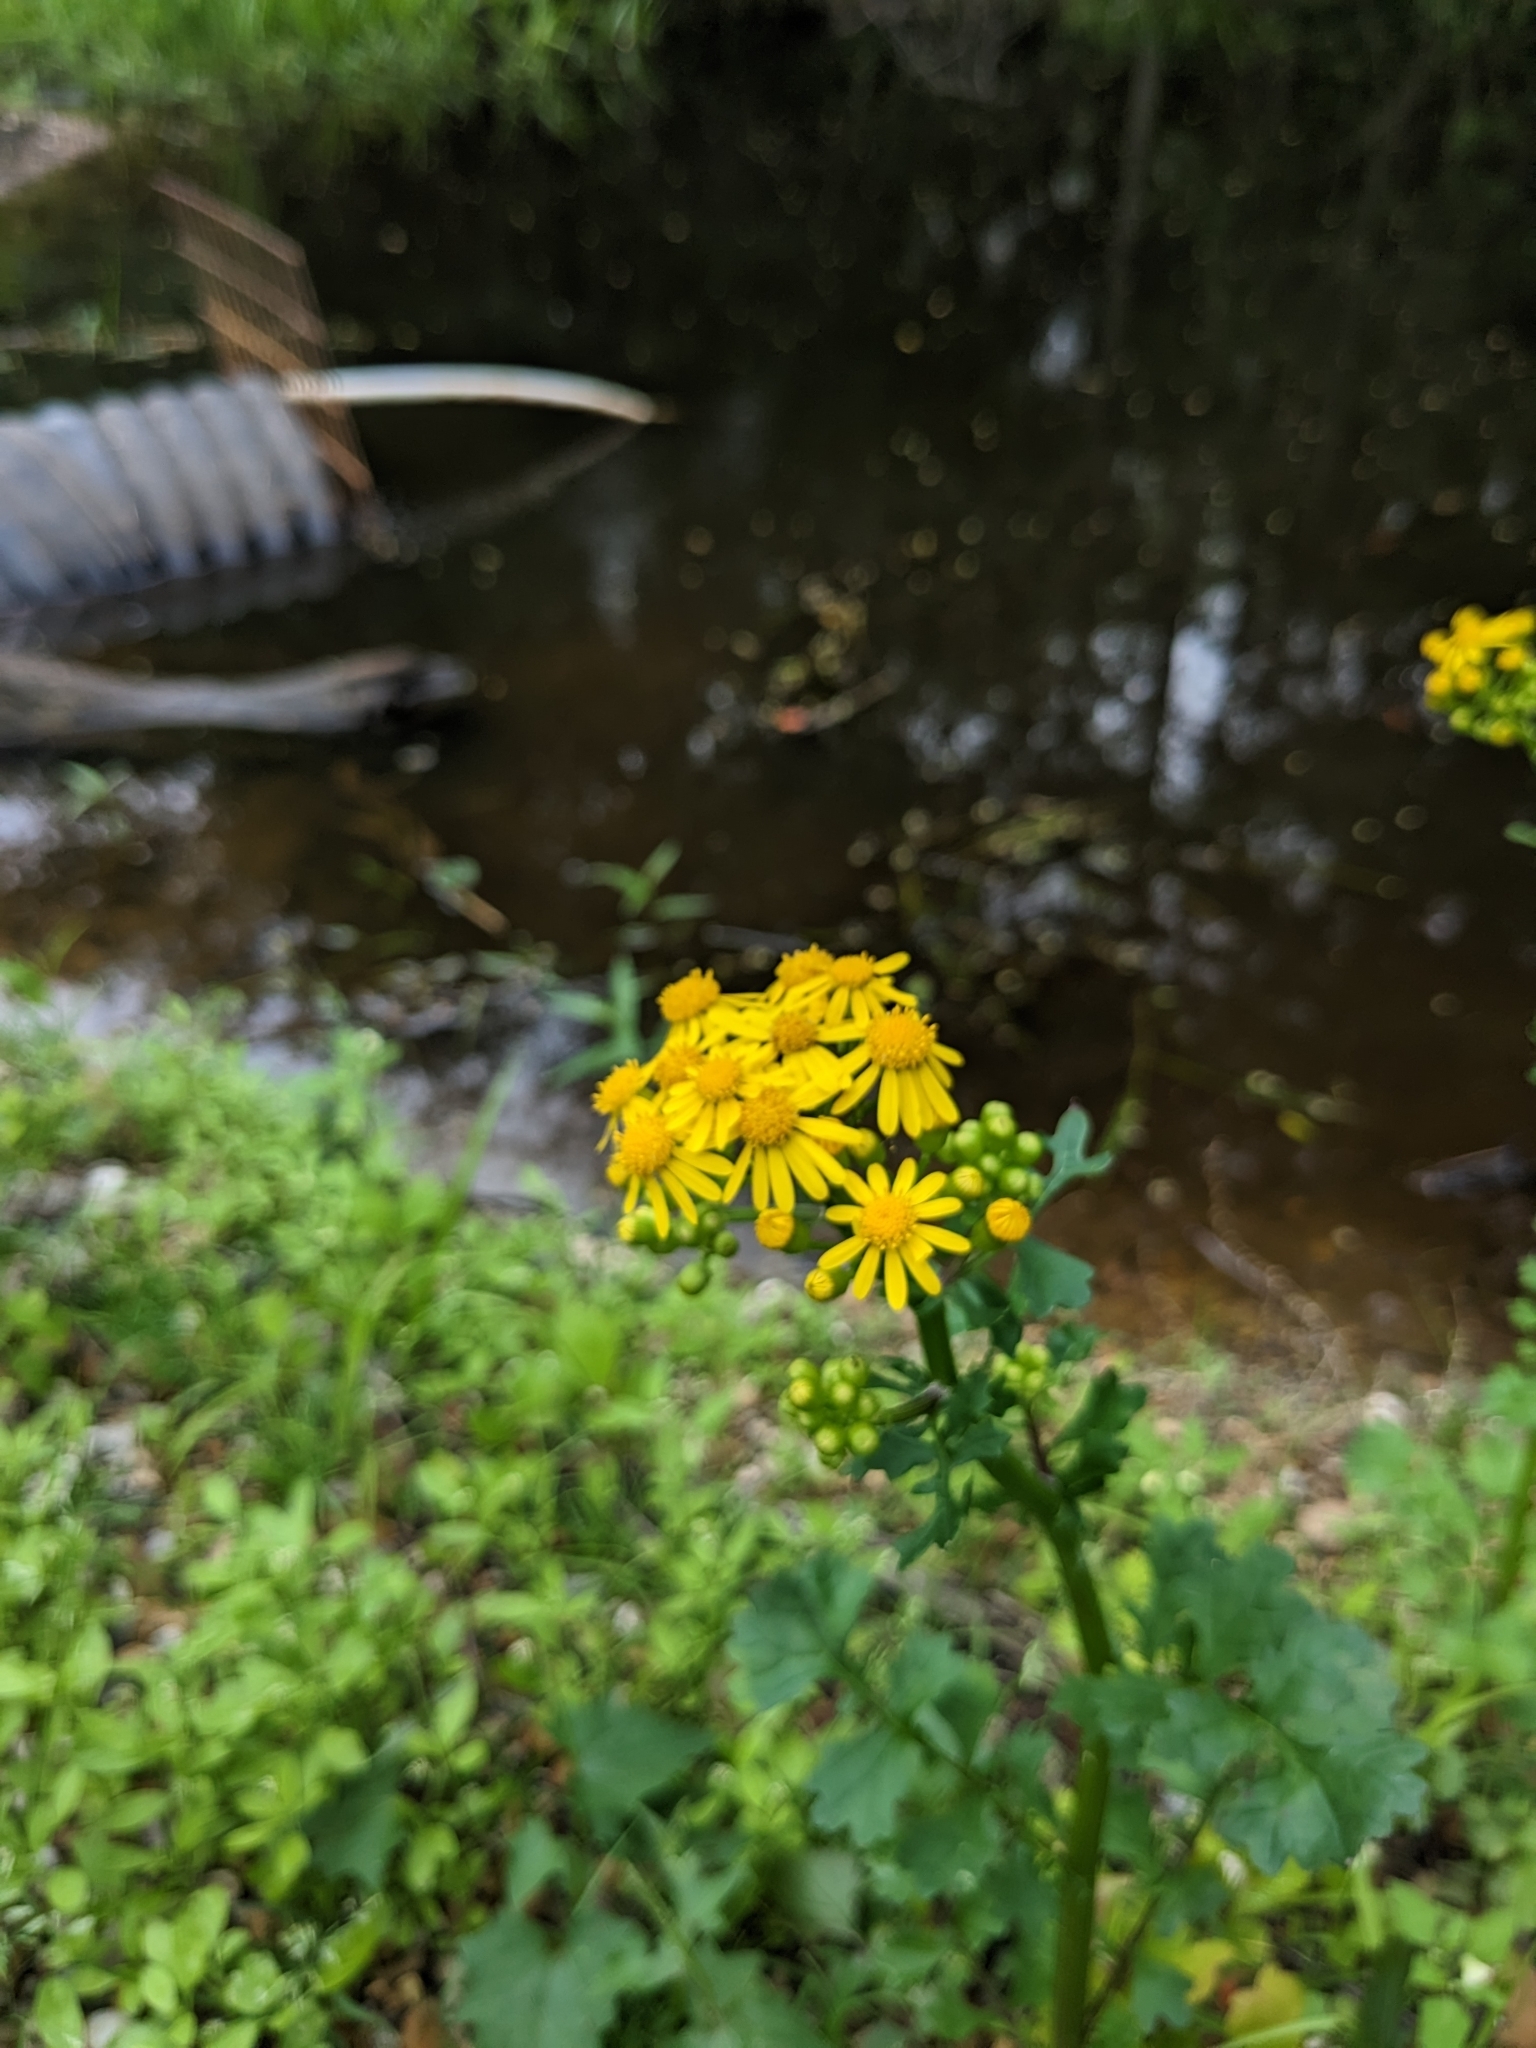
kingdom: Plantae
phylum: Tracheophyta
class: Magnoliopsida
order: Asterales
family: Asteraceae
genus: Packera
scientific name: Packera glabella
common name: Butterweed
